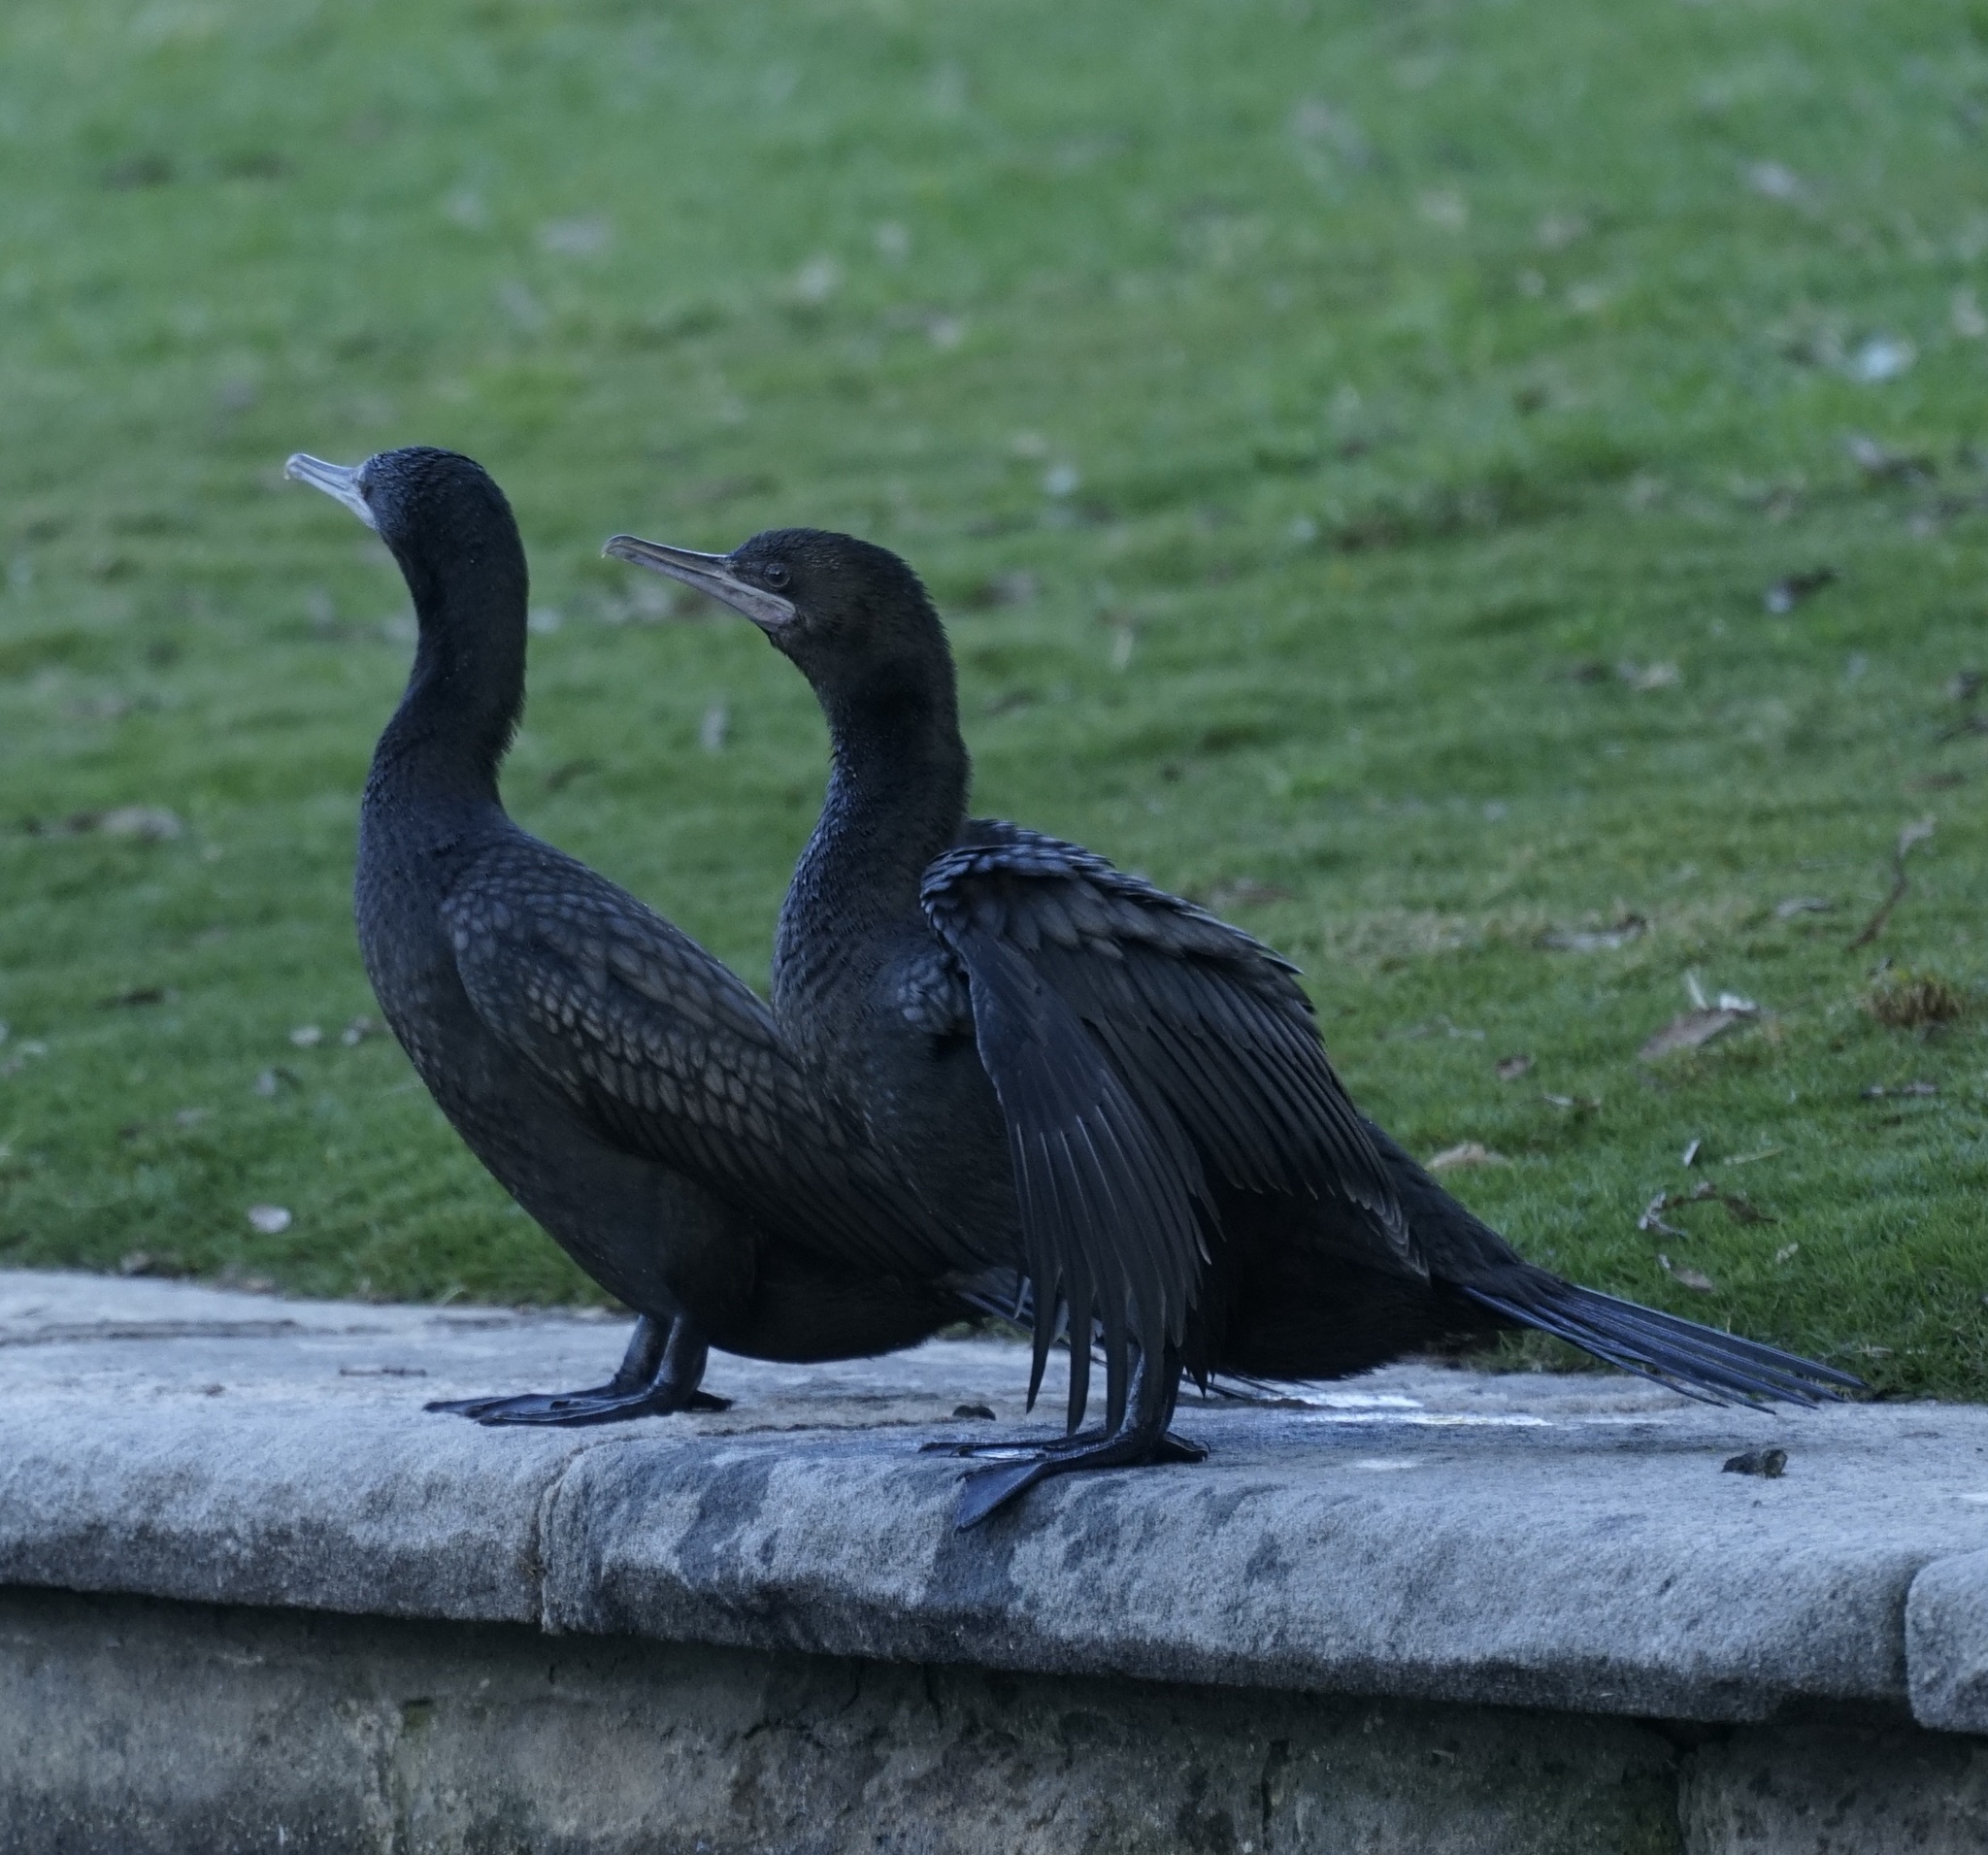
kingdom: Animalia
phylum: Chordata
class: Aves
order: Suliformes
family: Phalacrocoracidae
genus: Phalacrocorax
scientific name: Phalacrocorax sulcirostris
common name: Little black cormorant
